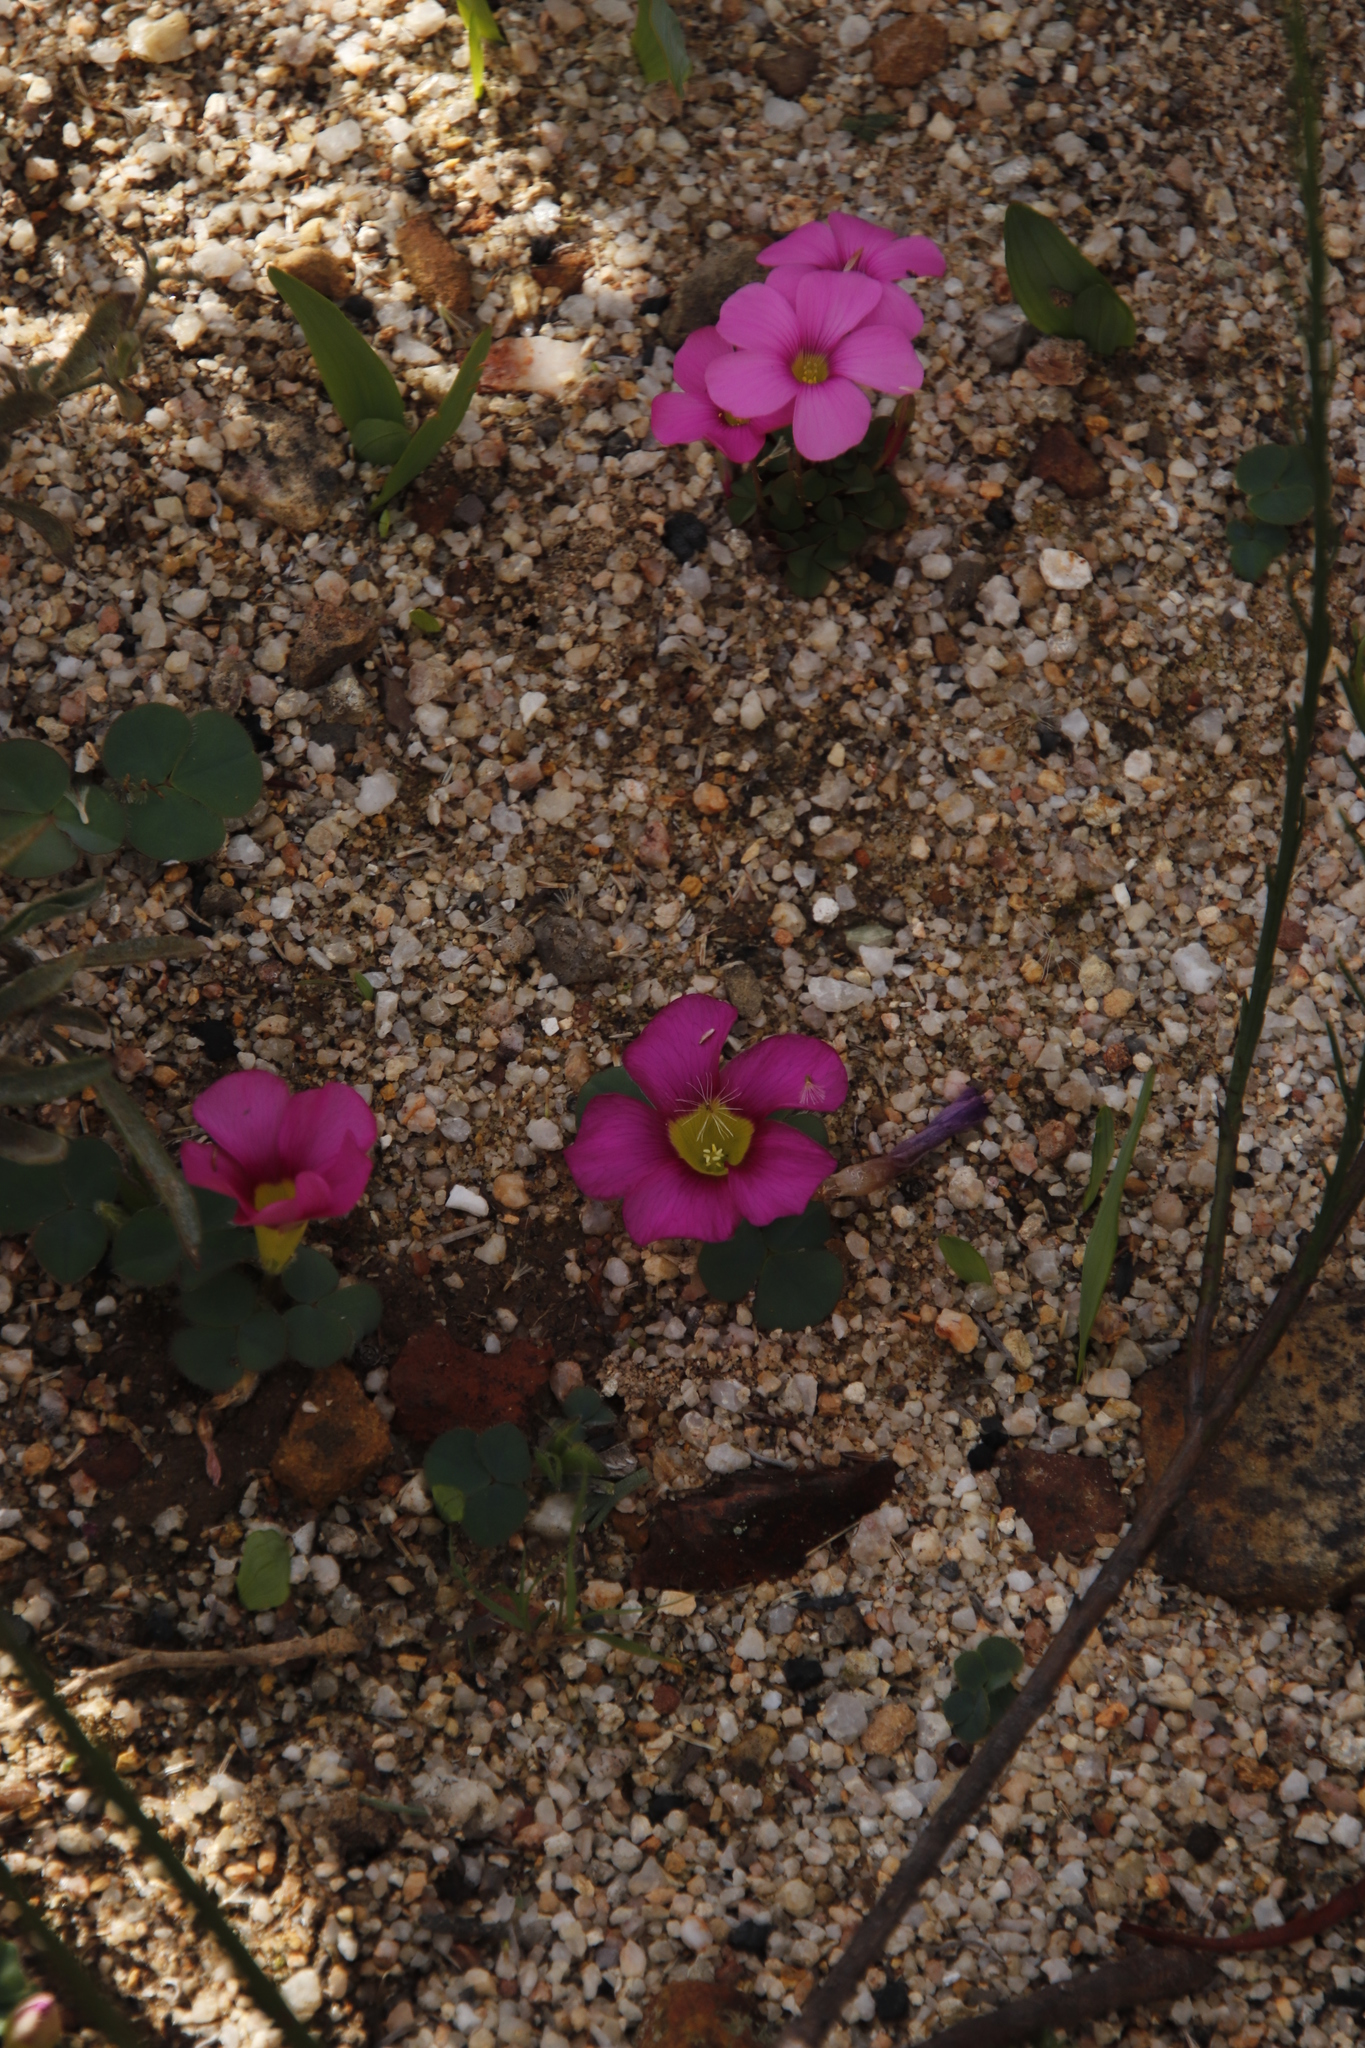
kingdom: Plantae
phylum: Tracheophyta
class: Magnoliopsida
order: Oxalidales
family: Oxalidaceae
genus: Oxalis
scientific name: Oxalis purpurea
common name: Purple woodsorrel
